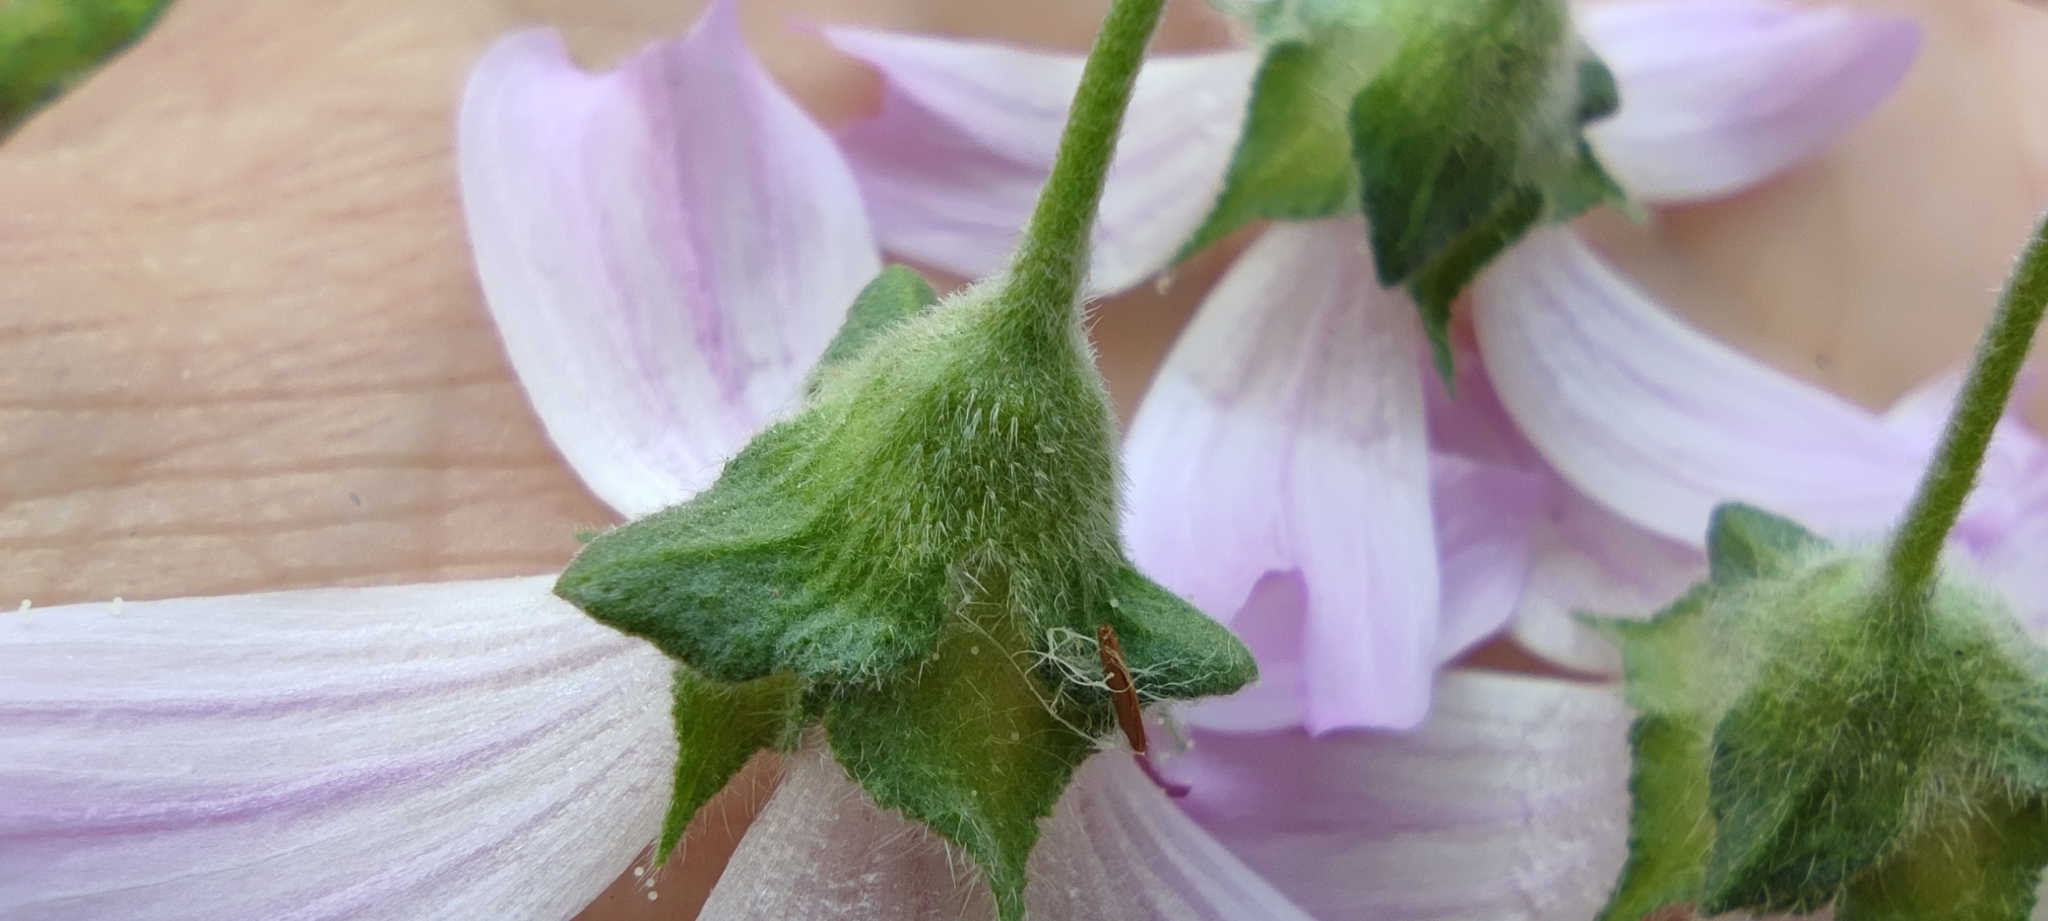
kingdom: Plantae
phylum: Tracheophyta
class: Magnoliopsida
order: Malvales
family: Malvaceae
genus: Malva
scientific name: Malva multiflora
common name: Cheeseweed
